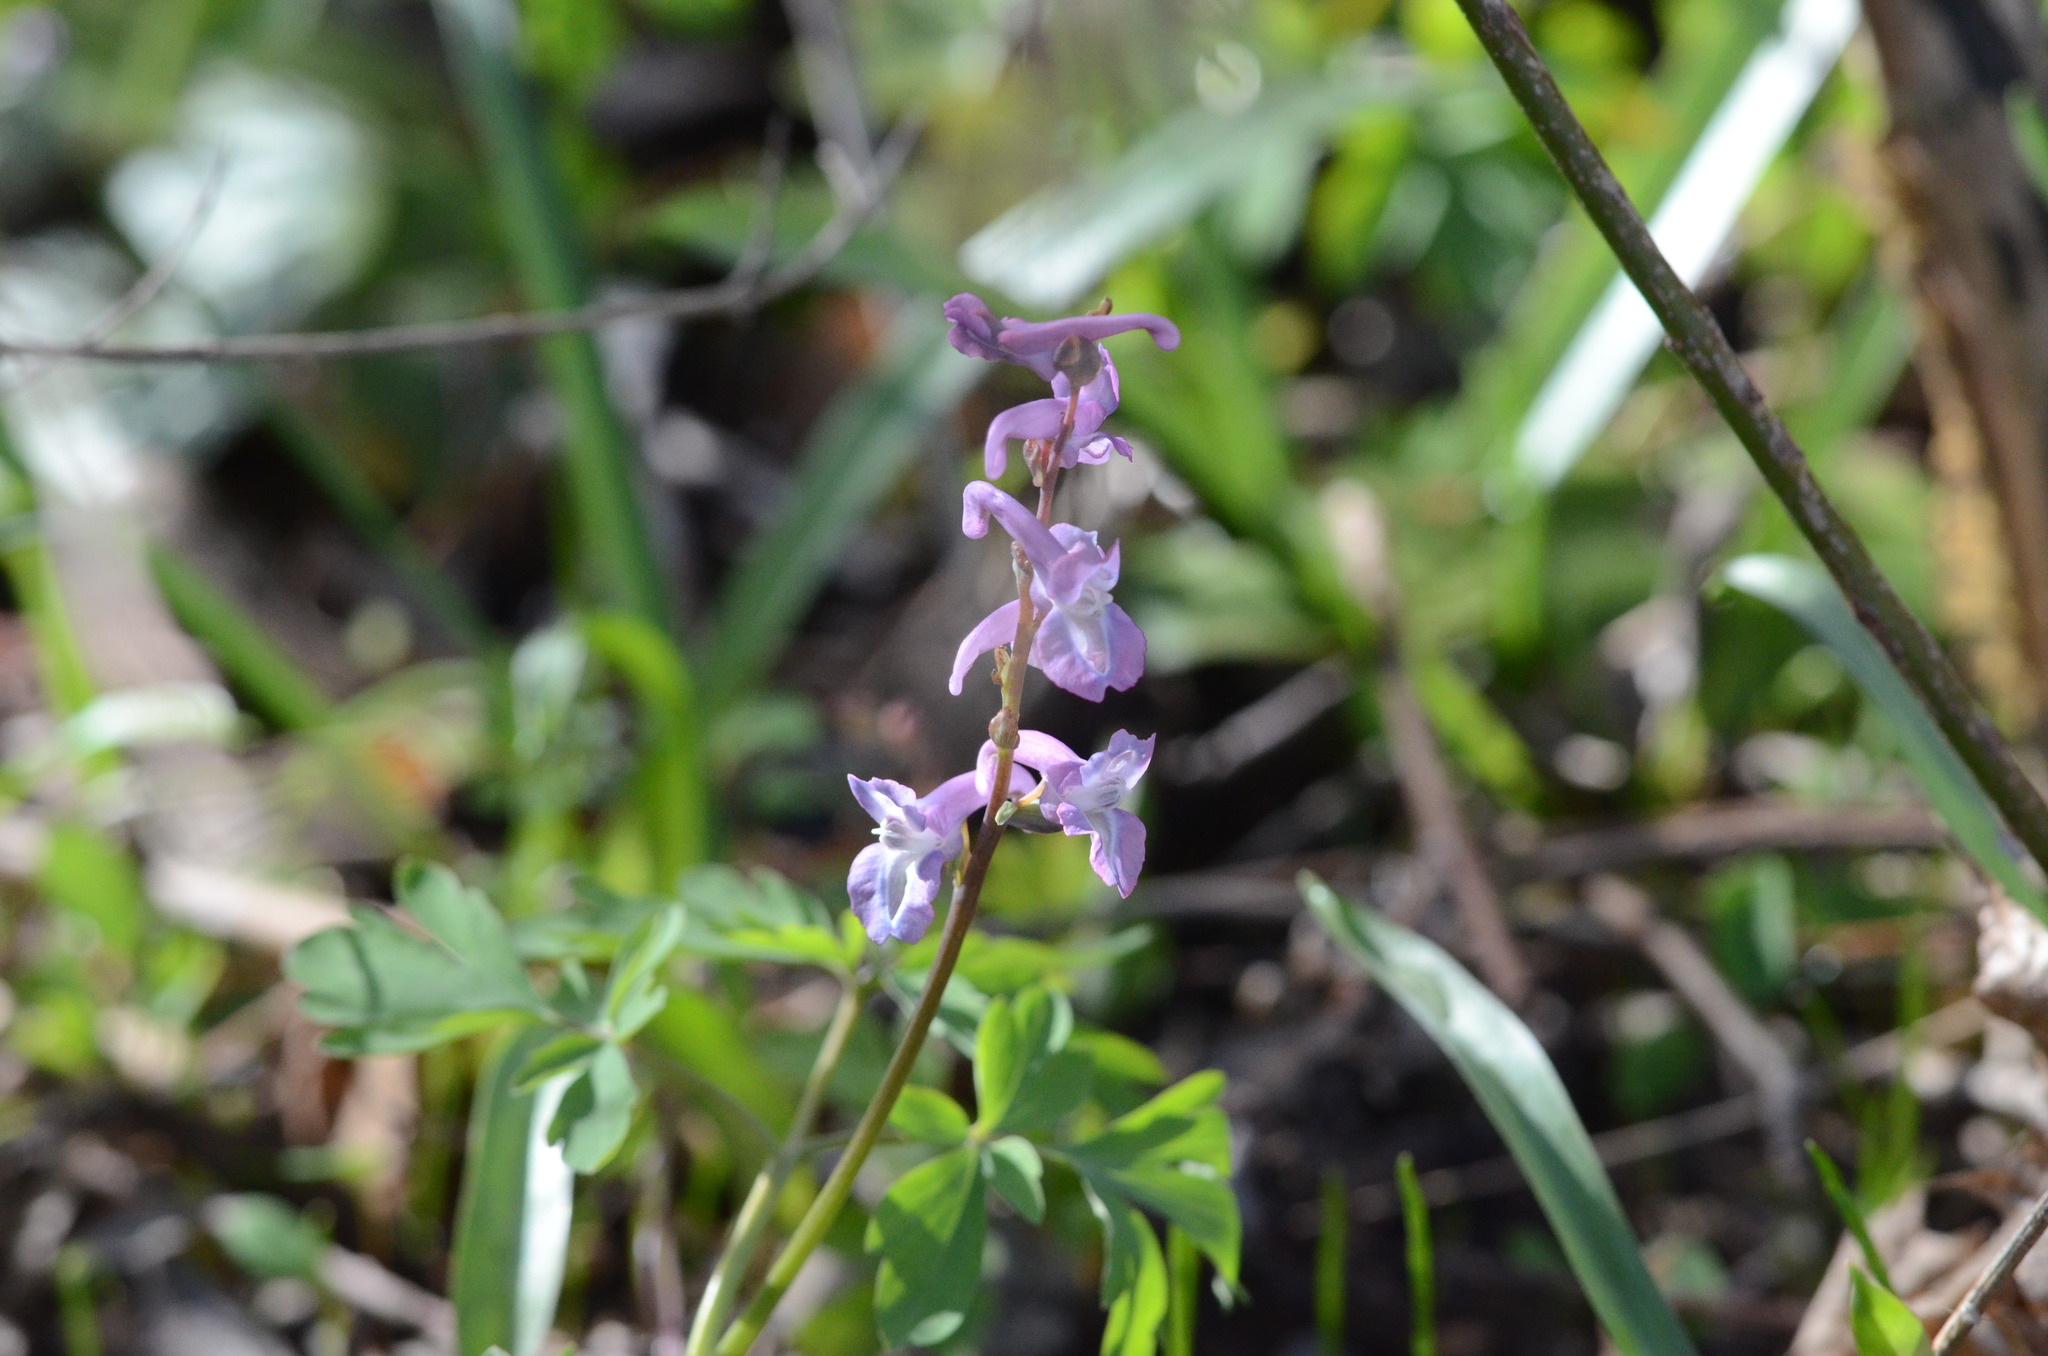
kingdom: Plantae
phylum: Tracheophyta
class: Magnoliopsida
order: Ranunculales
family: Papaveraceae
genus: Corydalis
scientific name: Corydalis cava
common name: Hollowroot
